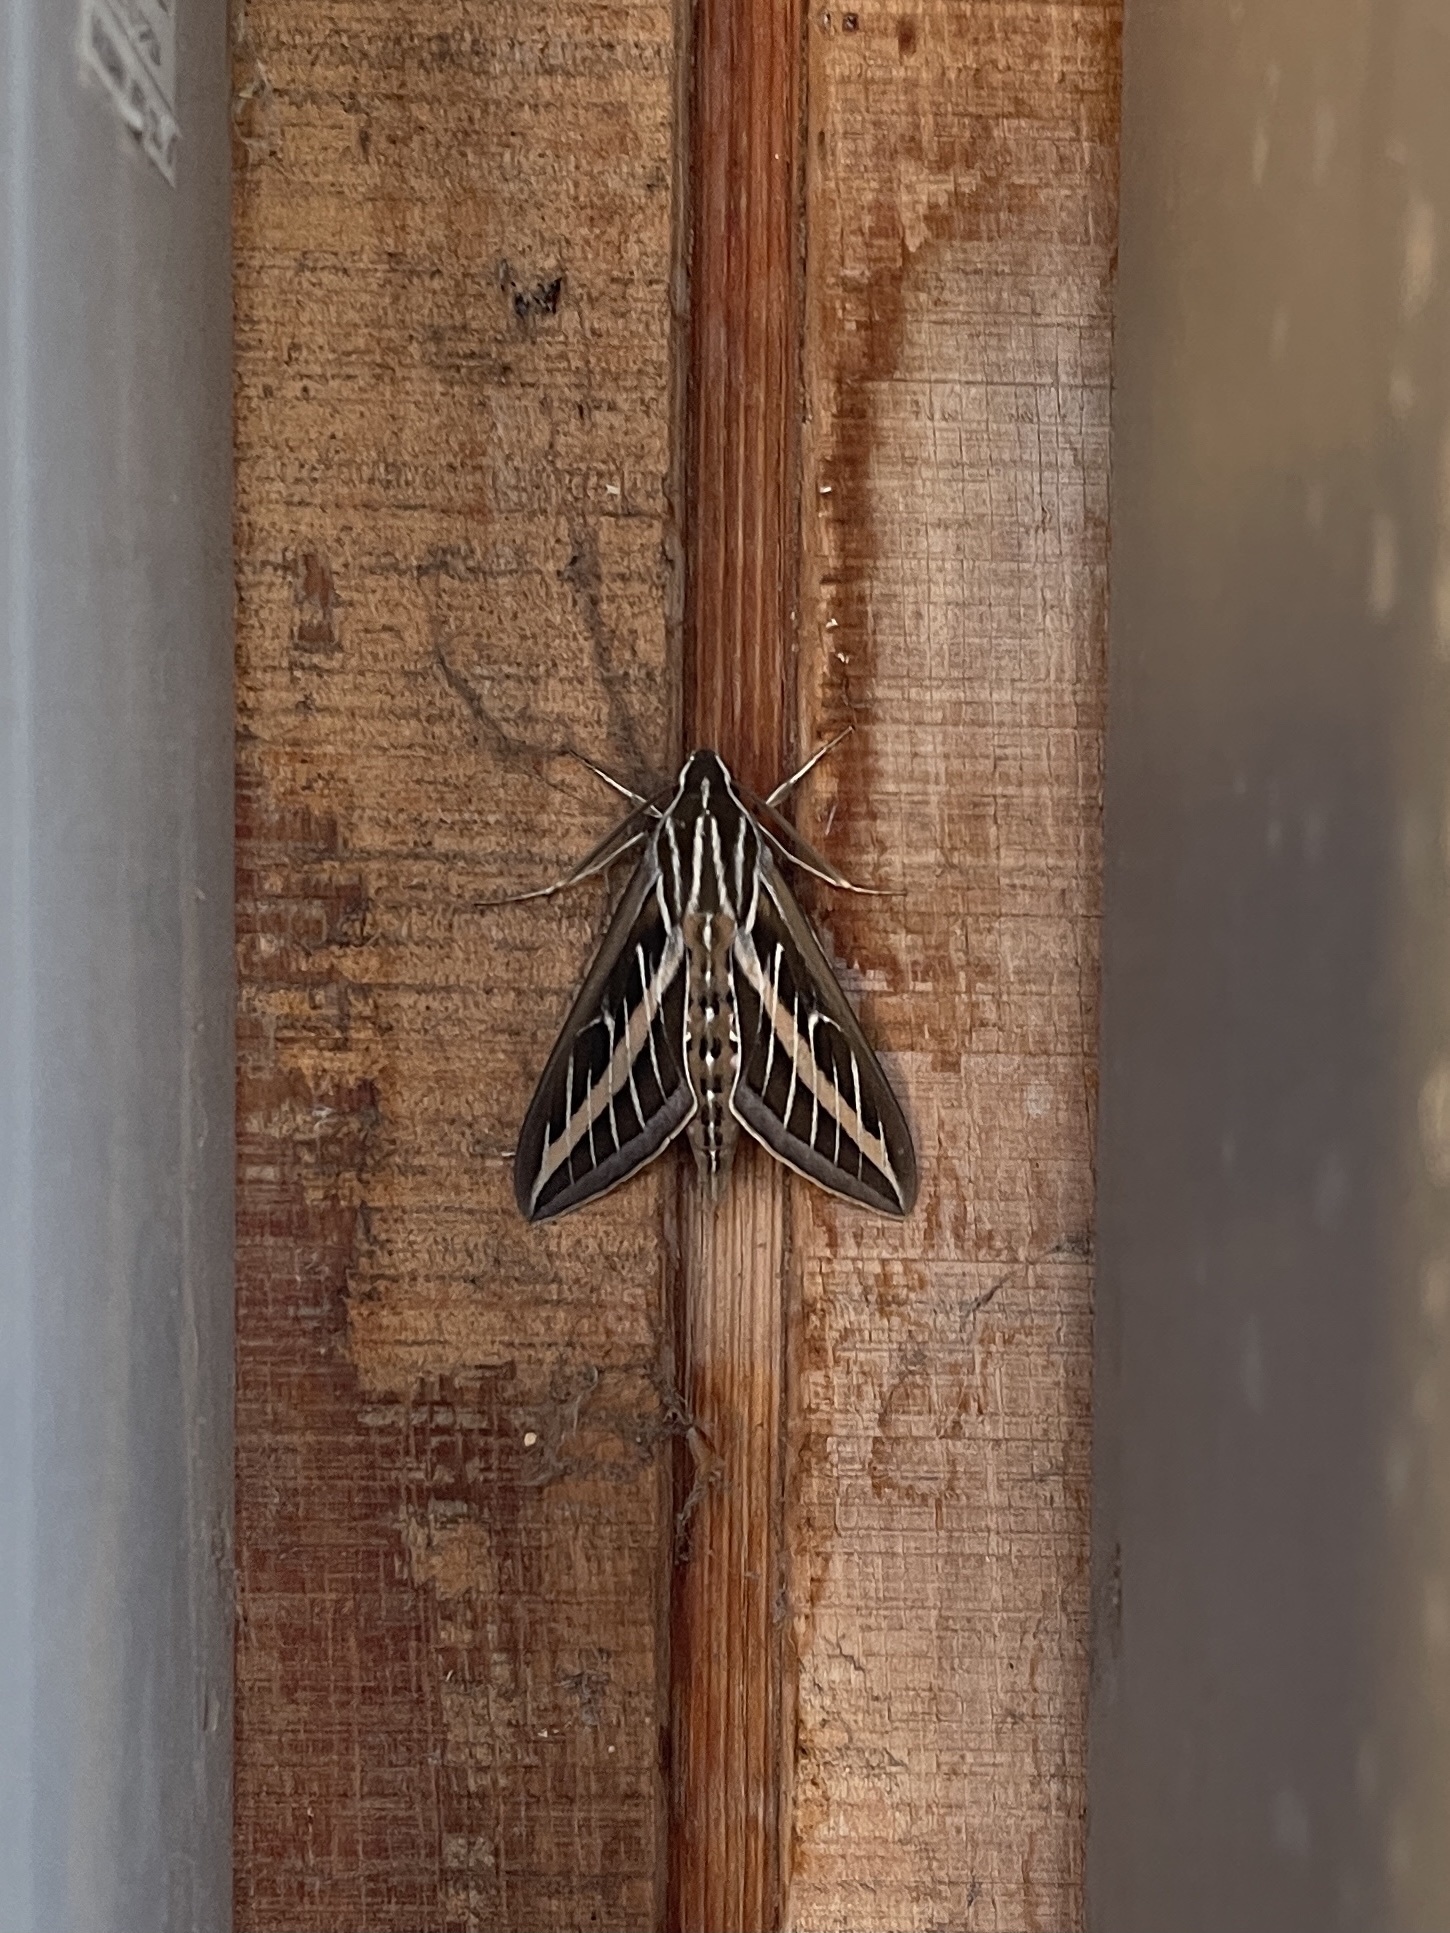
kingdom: Animalia
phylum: Arthropoda
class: Insecta
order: Lepidoptera
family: Sphingidae
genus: Hyles
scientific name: Hyles lineata
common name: White-lined sphinx
